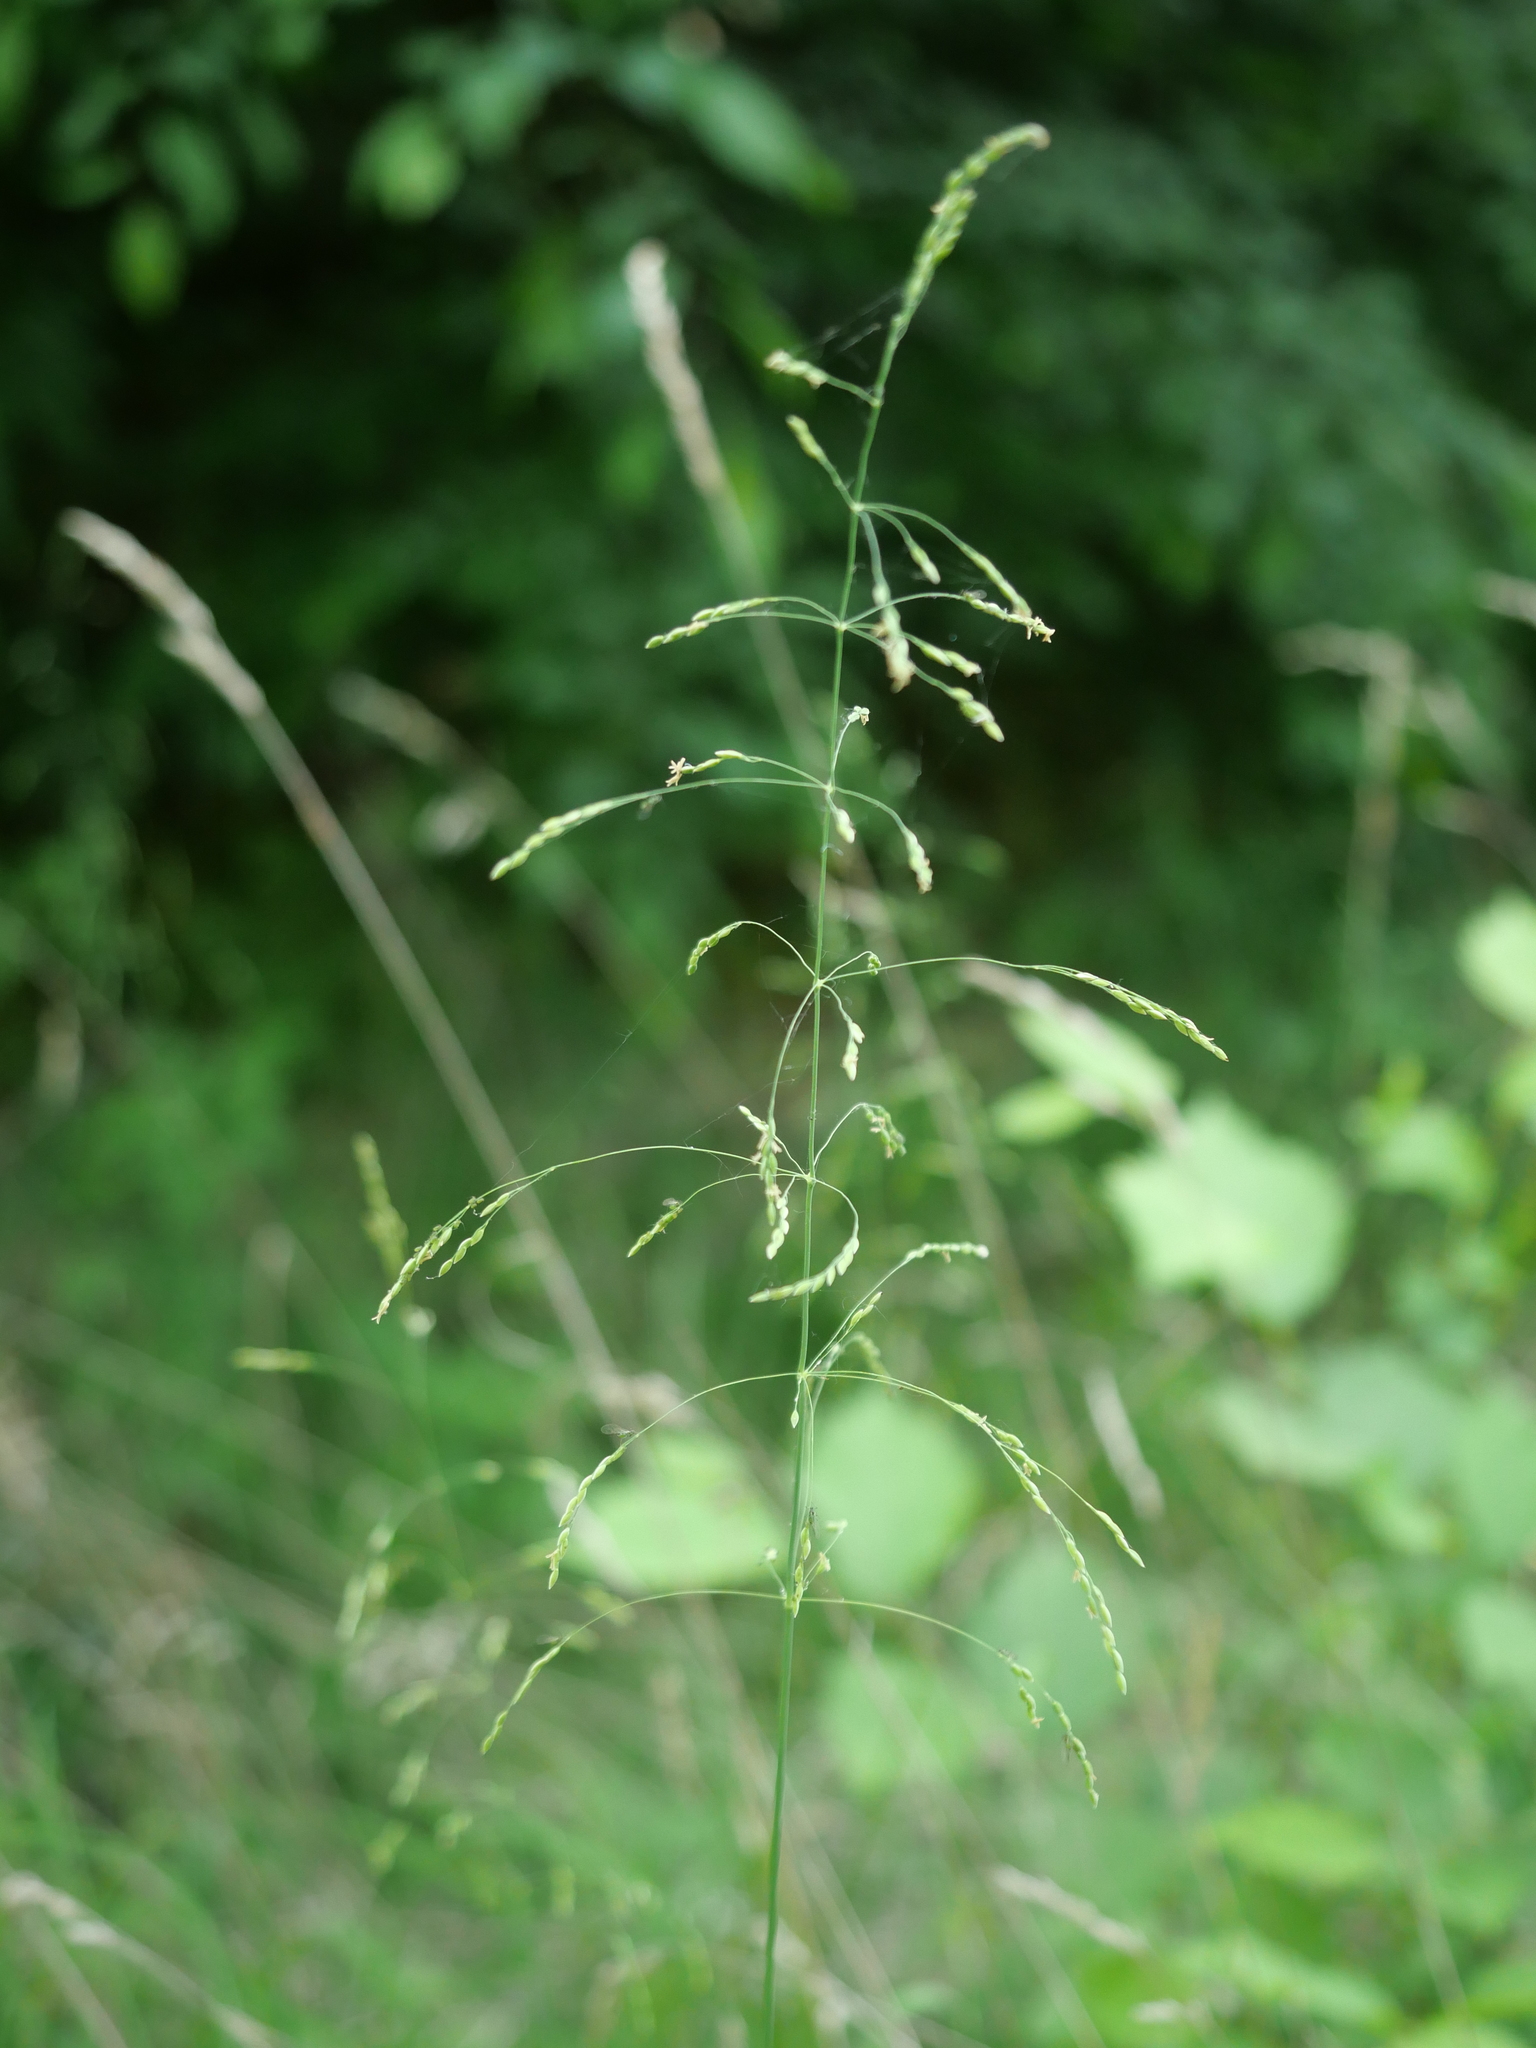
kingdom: Plantae
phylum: Tracheophyta
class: Liliopsida
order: Poales
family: Poaceae
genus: Milium
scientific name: Milium effusum
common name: Wood millet
